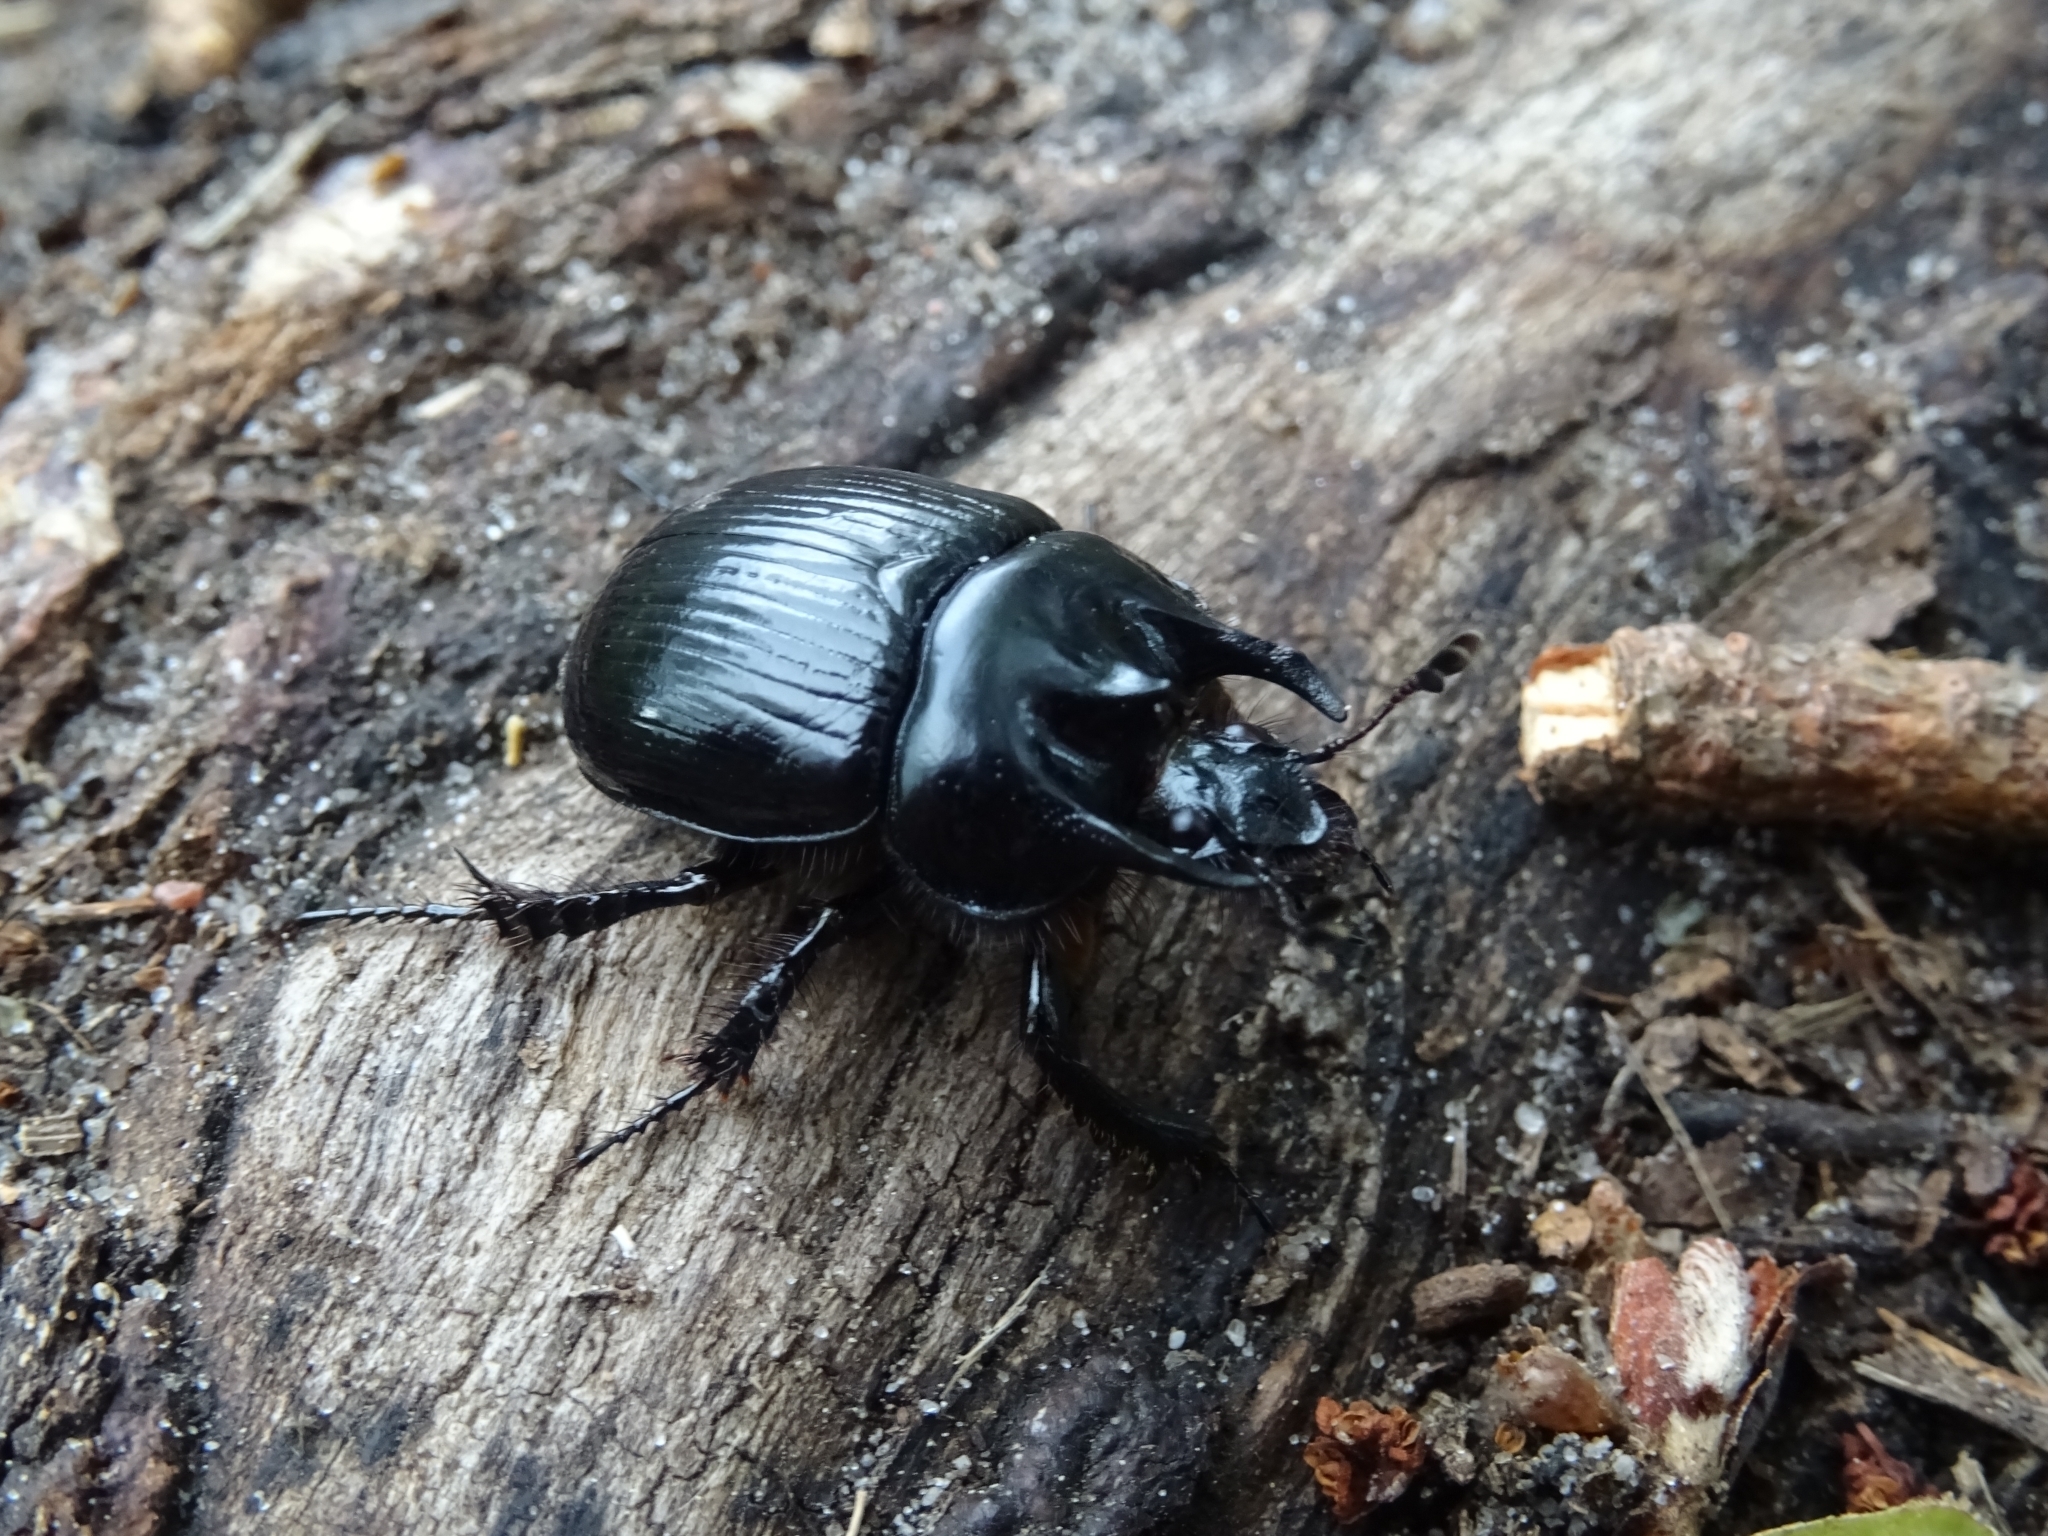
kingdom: Animalia
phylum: Arthropoda
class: Insecta
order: Coleoptera
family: Geotrupidae
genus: Typhaeus
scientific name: Typhaeus typhoeus
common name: Minotaur beetle
